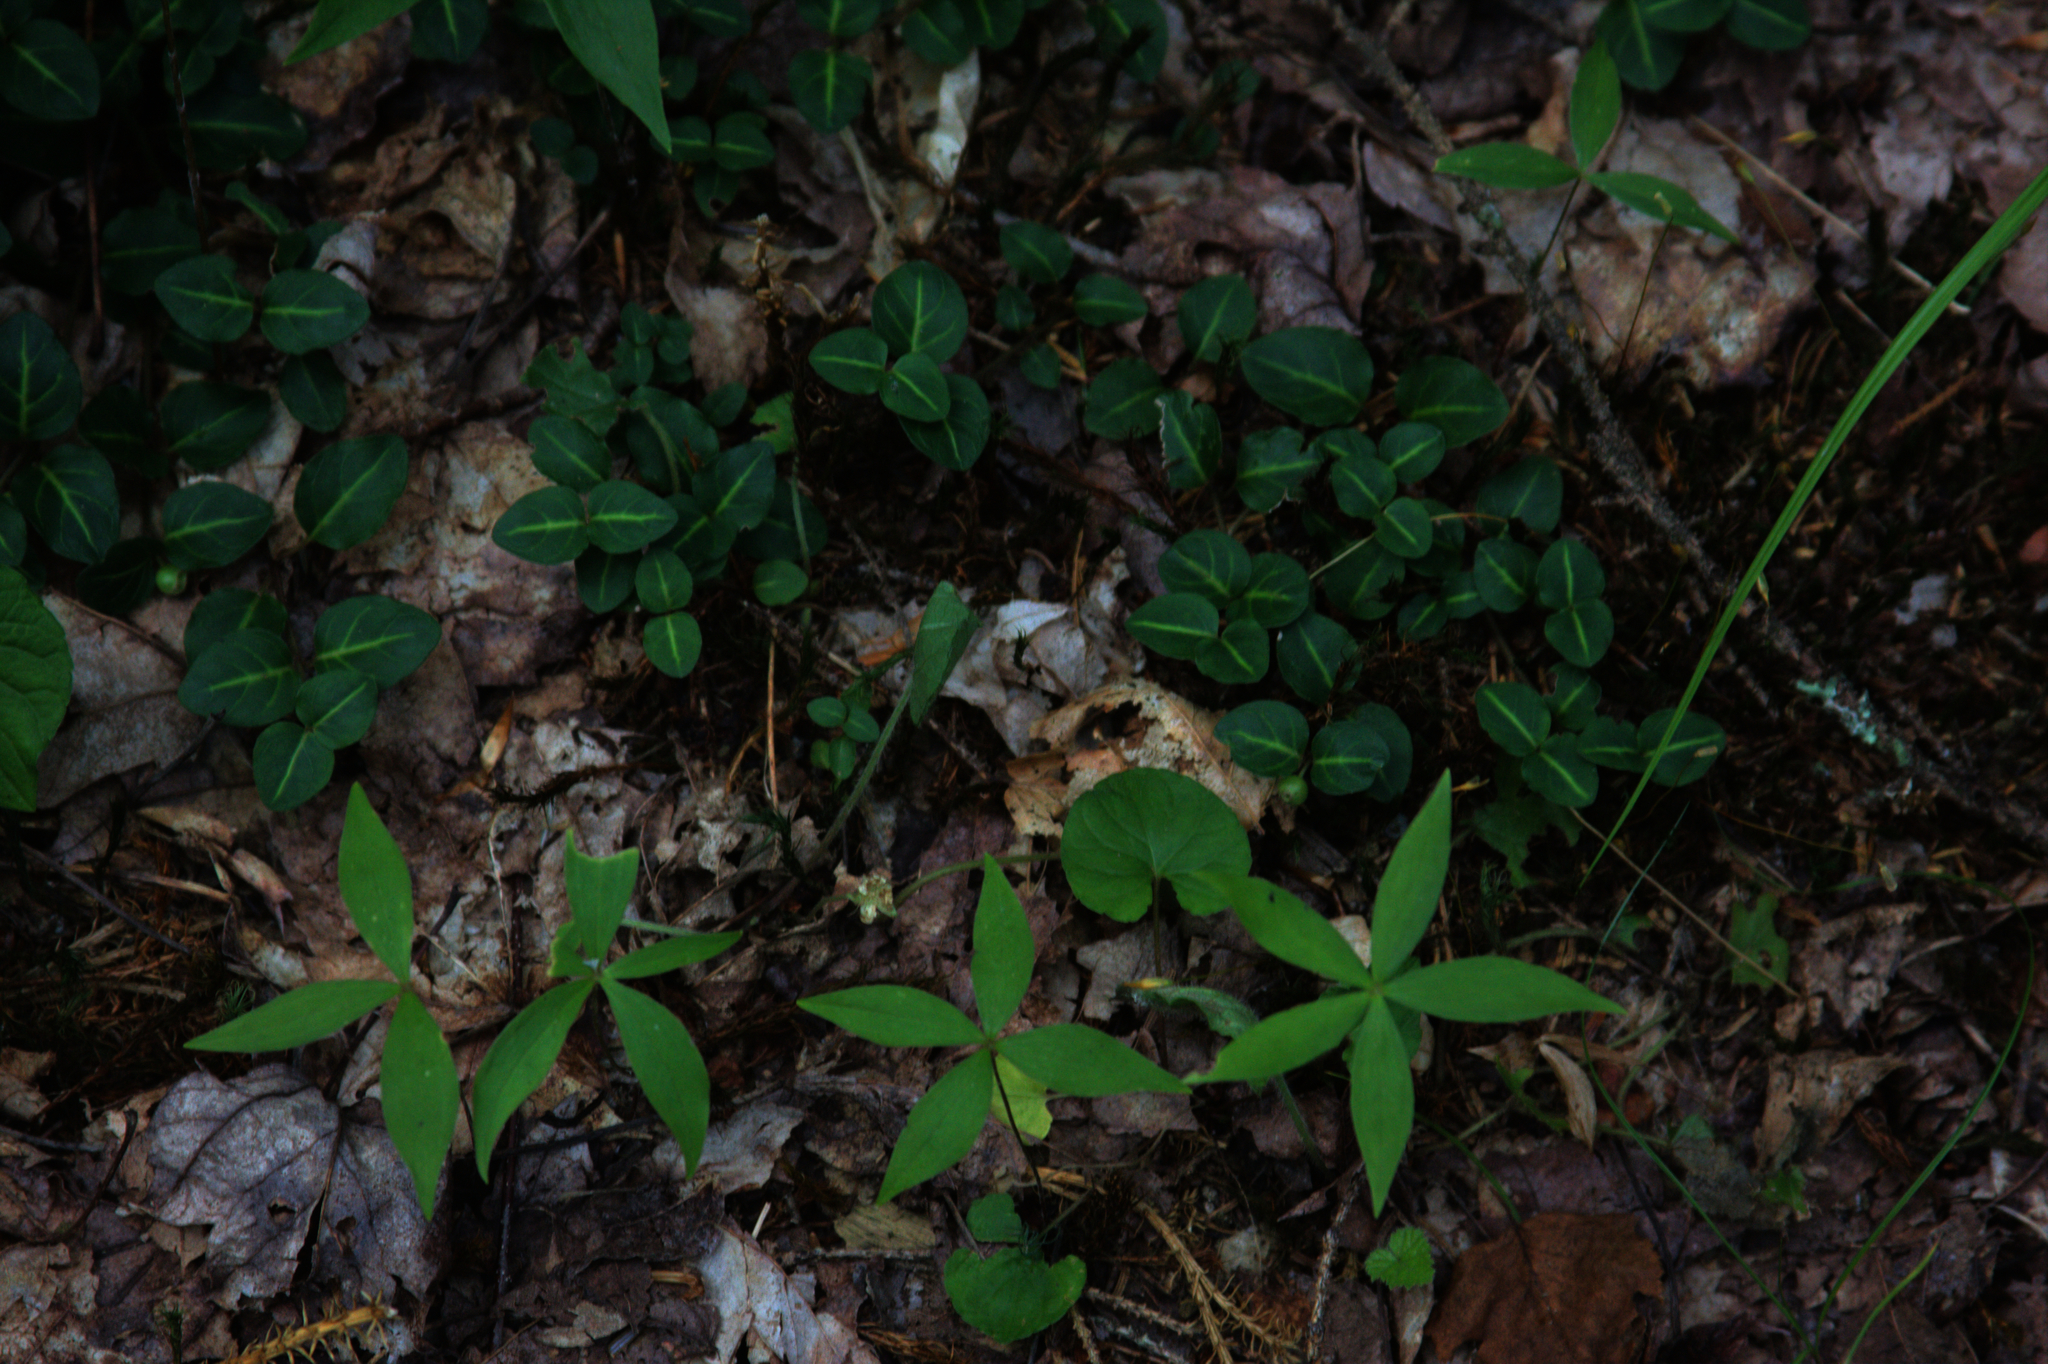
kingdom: Plantae
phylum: Tracheophyta
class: Magnoliopsida
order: Gentianales
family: Rubiaceae
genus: Mitchella
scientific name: Mitchella repens
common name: Partridge-berry
